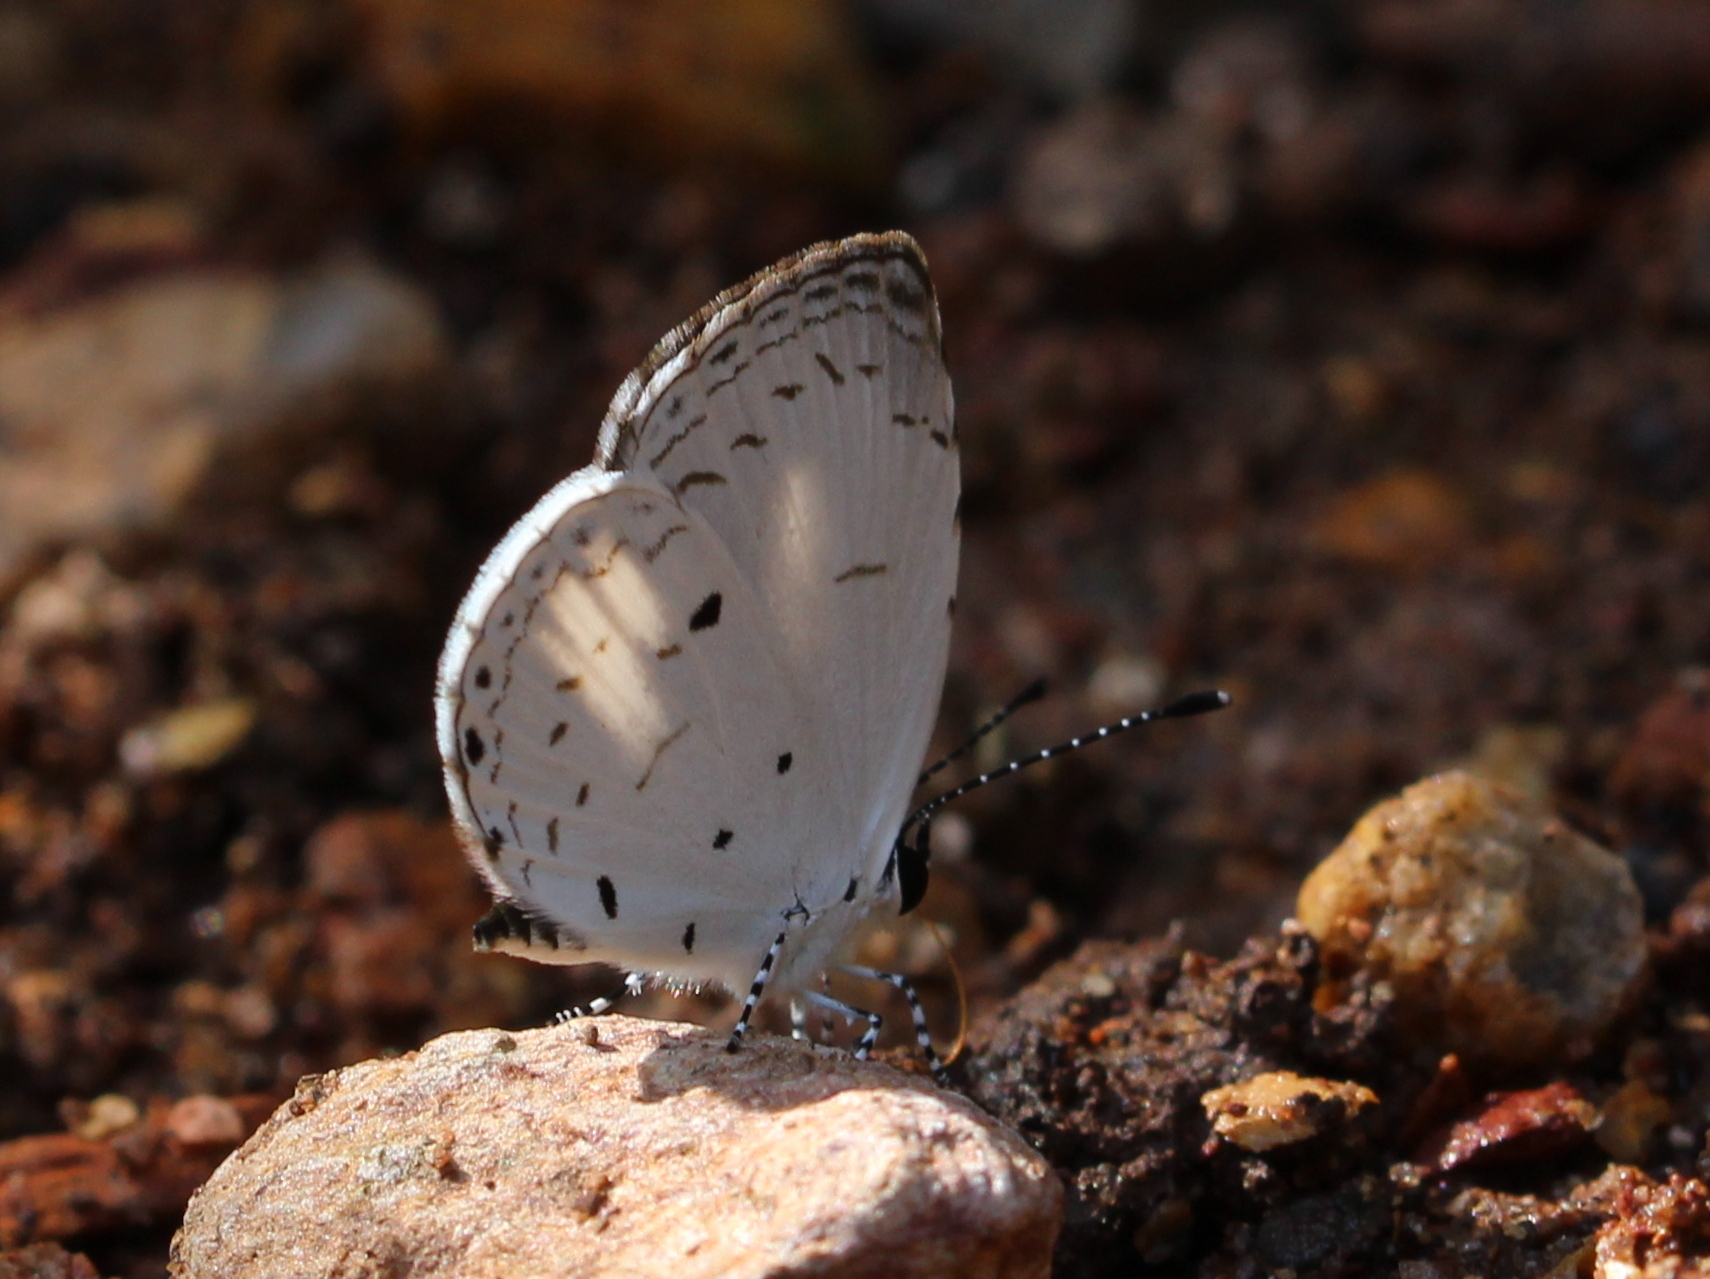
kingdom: Animalia
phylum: Arthropoda
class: Insecta
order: Lepidoptera
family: Lycaenidae
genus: Neopithecops
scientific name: Neopithecops zalmora
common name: Quaker
